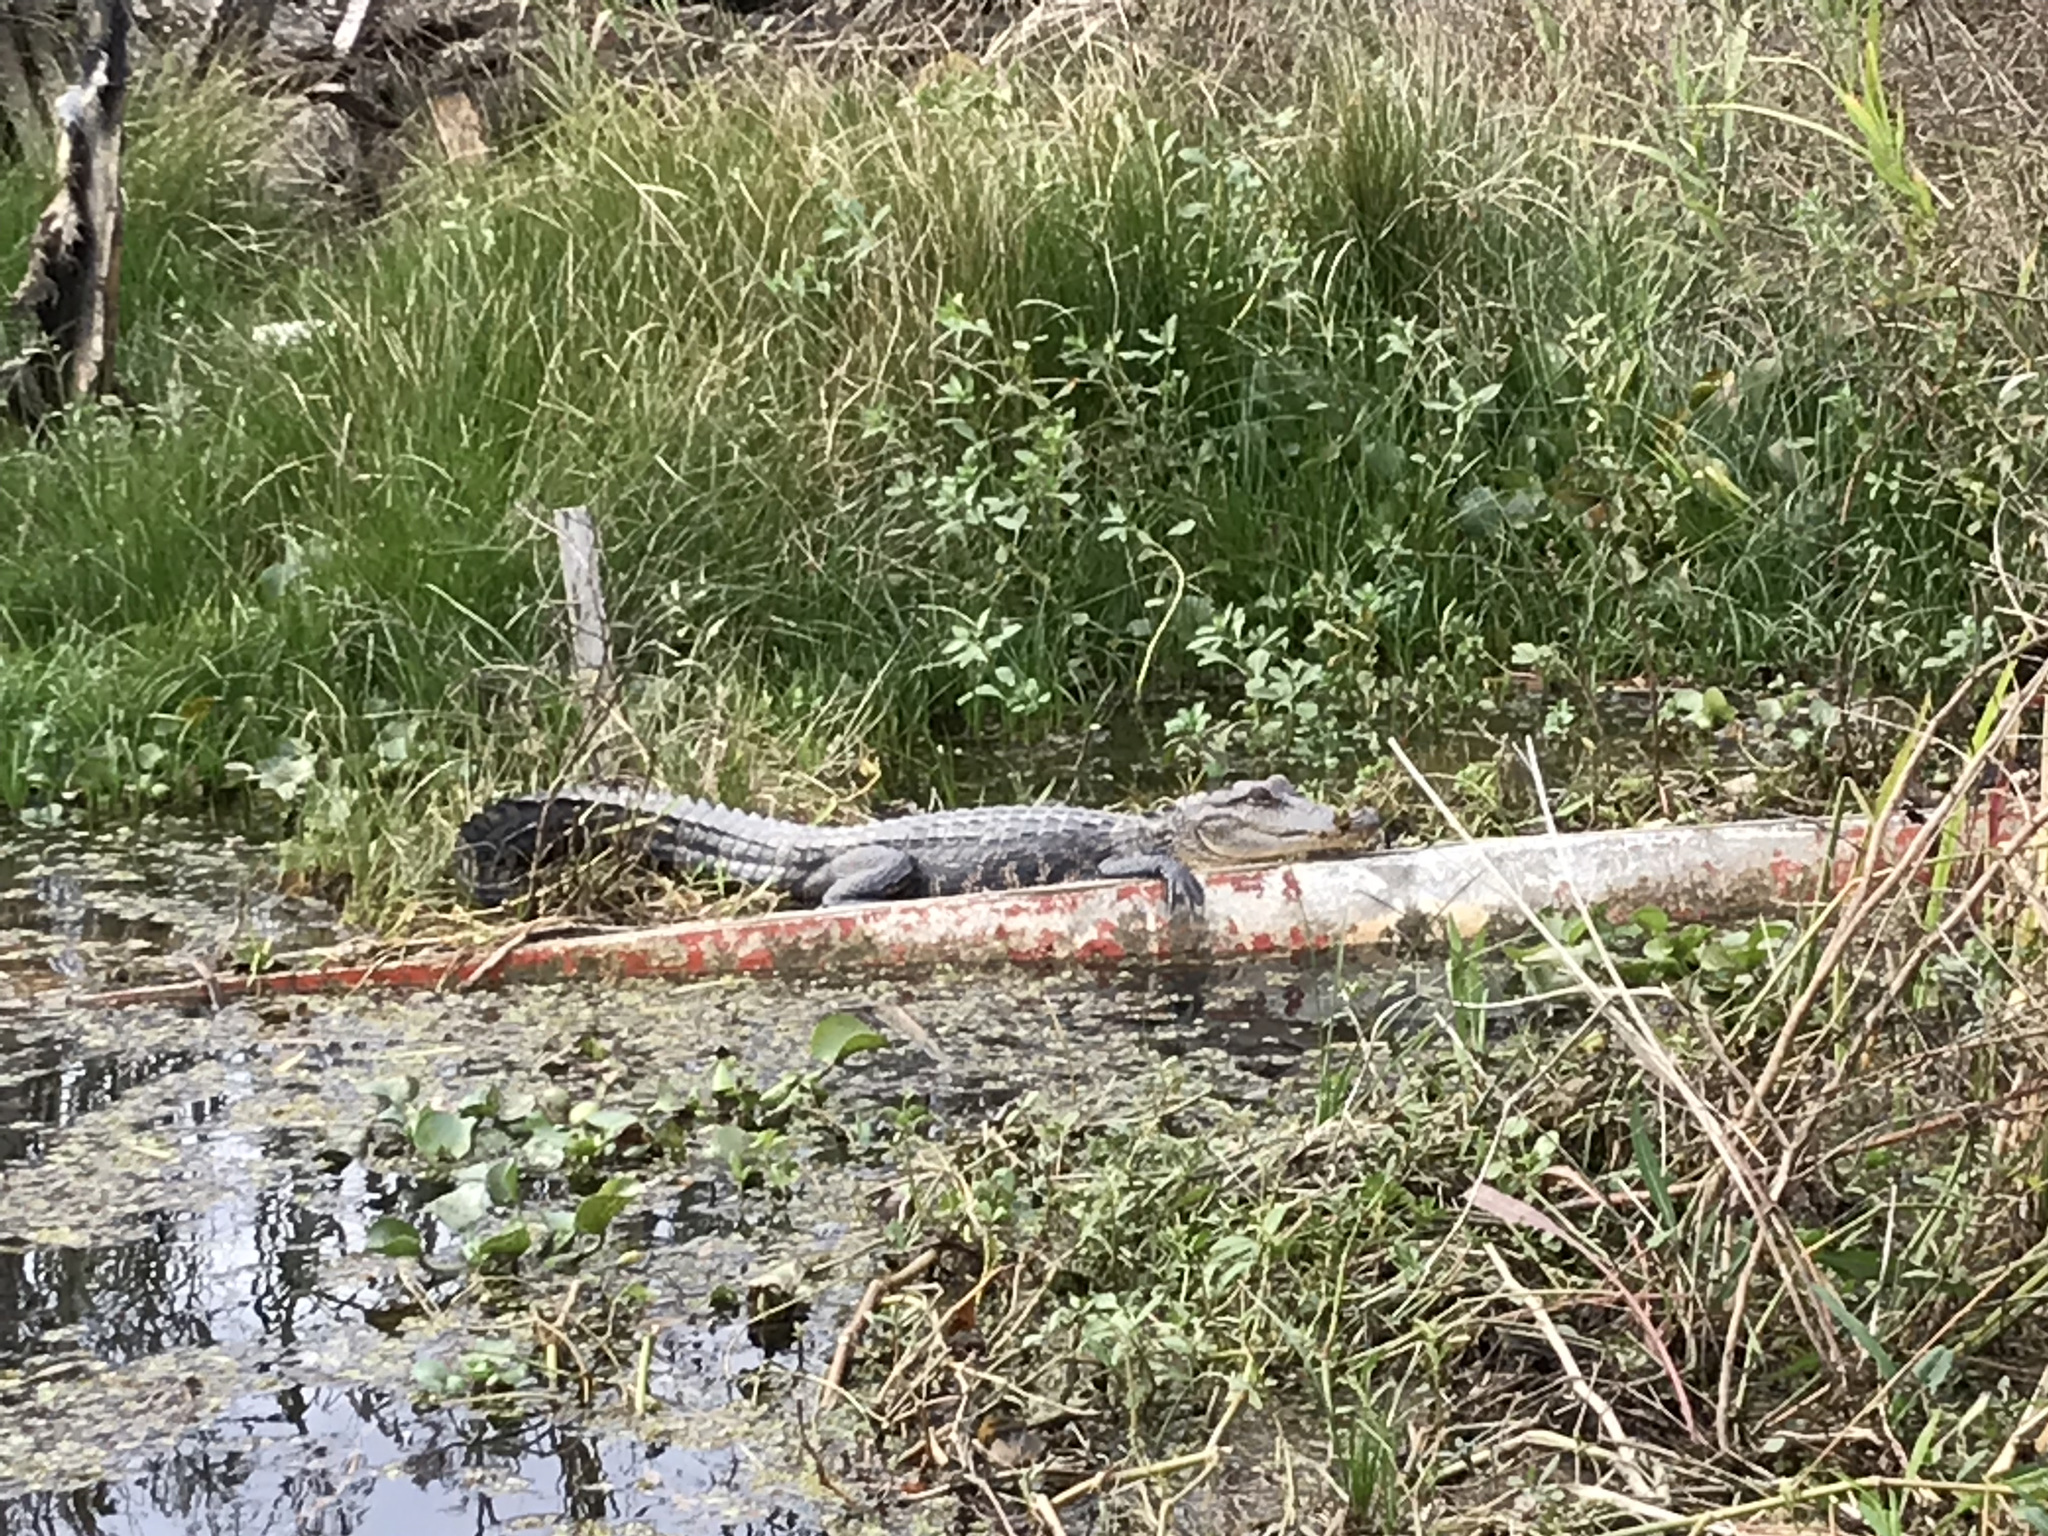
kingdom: Animalia
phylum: Chordata
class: Crocodylia
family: Alligatoridae
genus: Alligator
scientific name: Alligator mississippiensis
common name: American alligator
